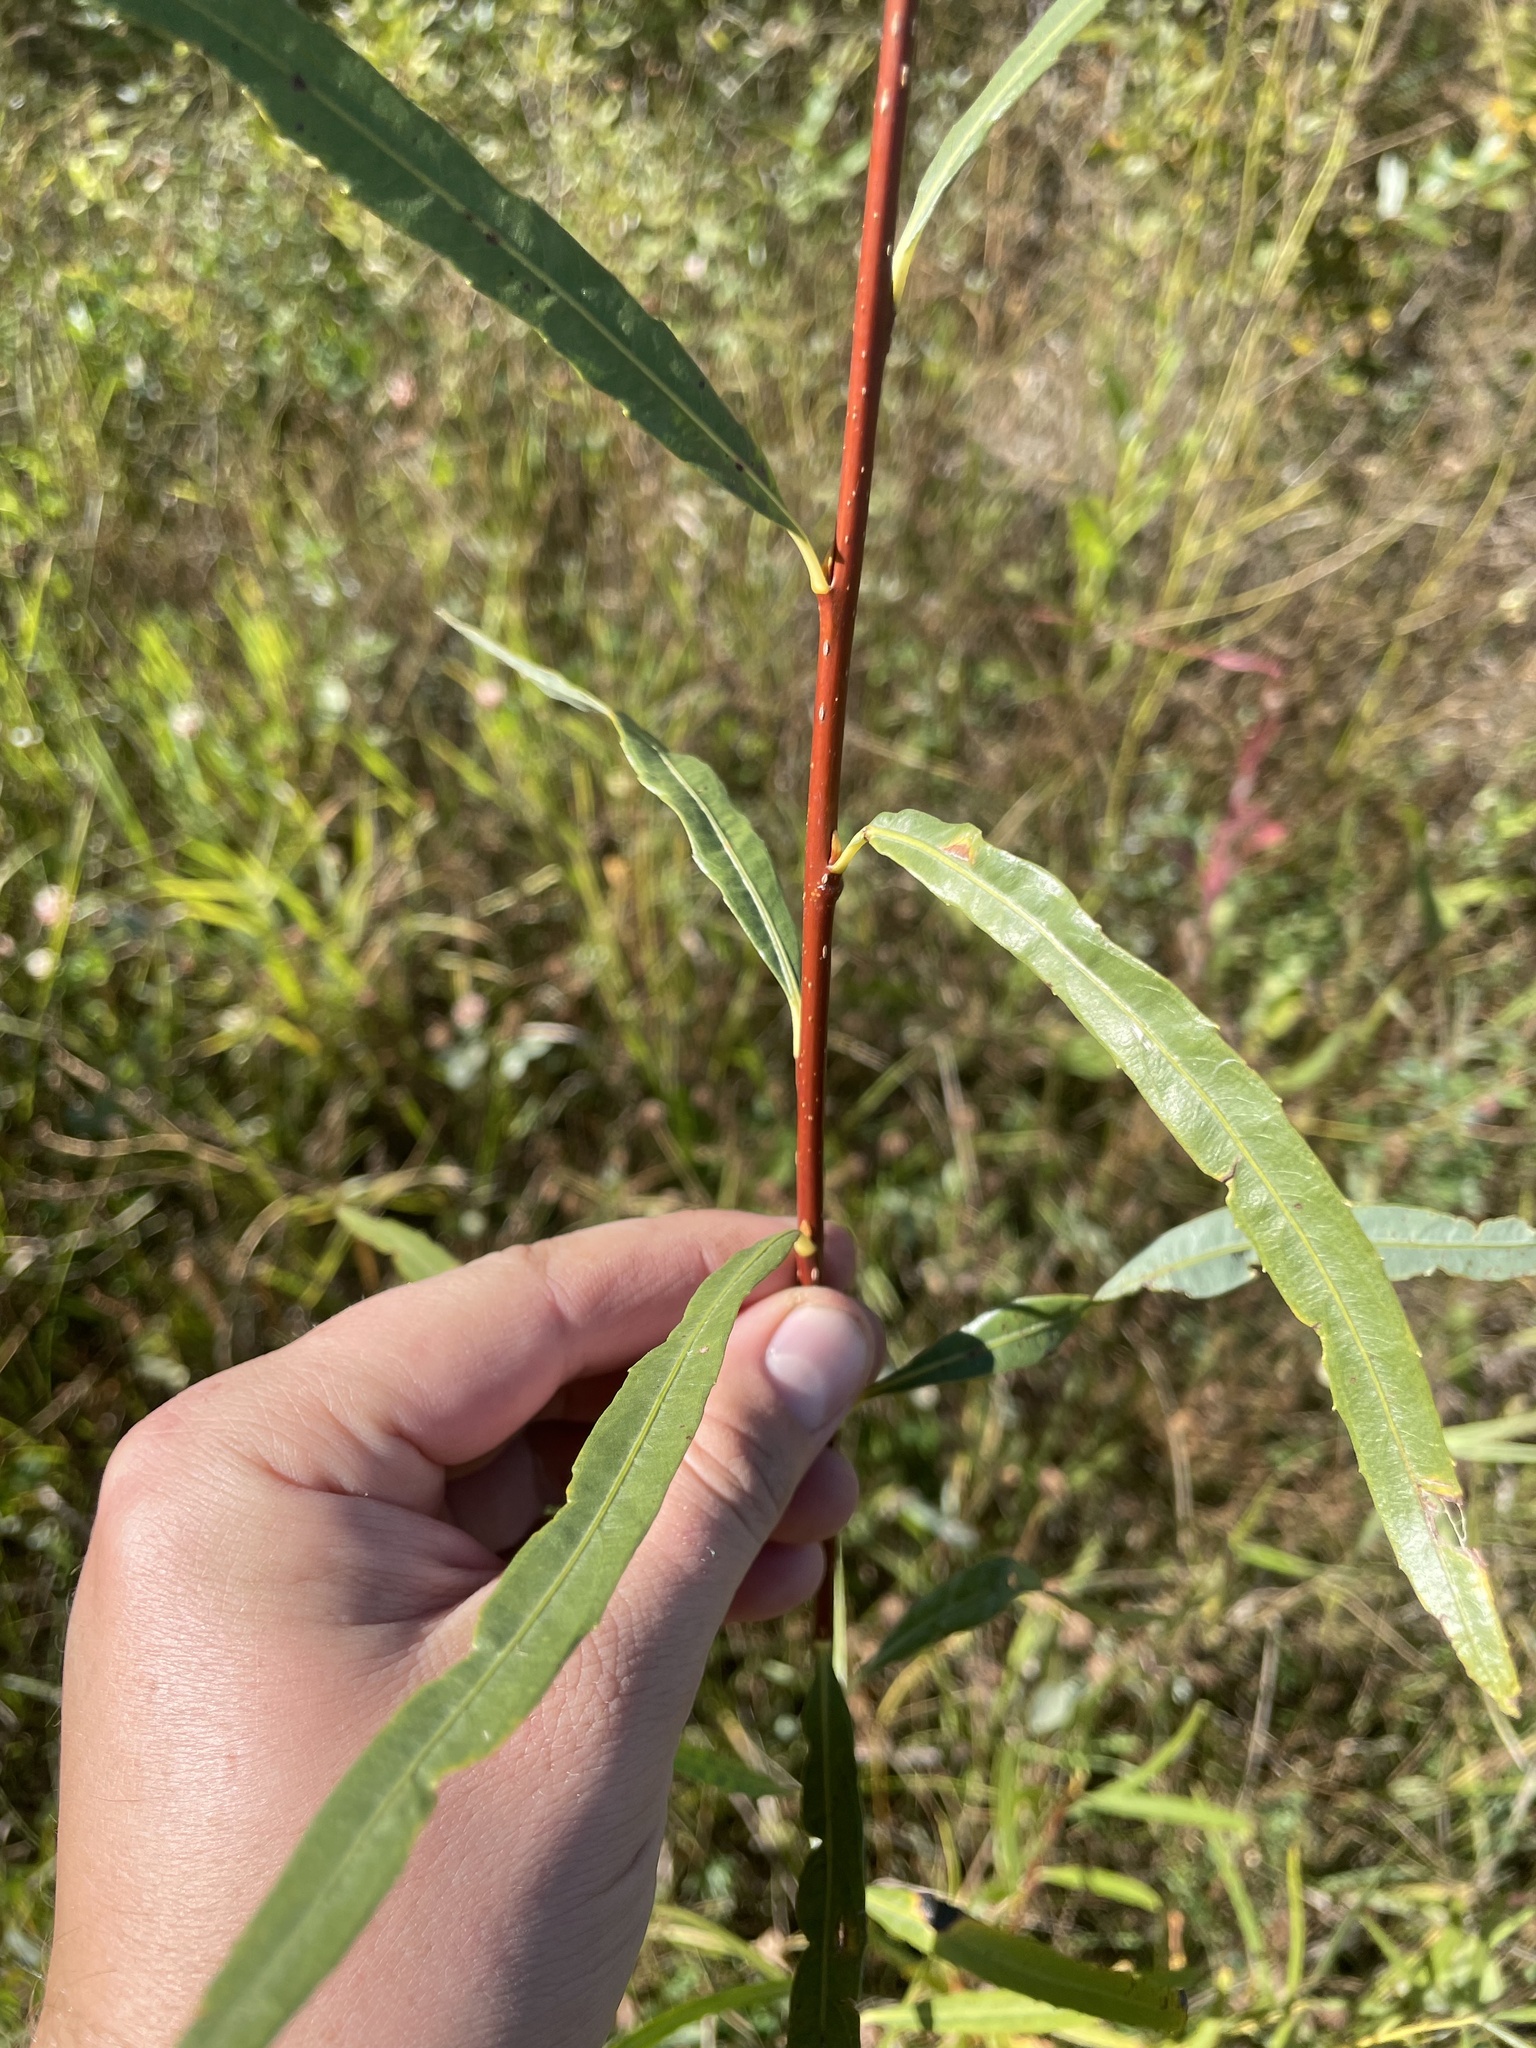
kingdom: Plantae
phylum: Tracheophyta
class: Magnoliopsida
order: Malpighiales
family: Salicaceae
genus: Salix
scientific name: Salix interior
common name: Sandbar willow
